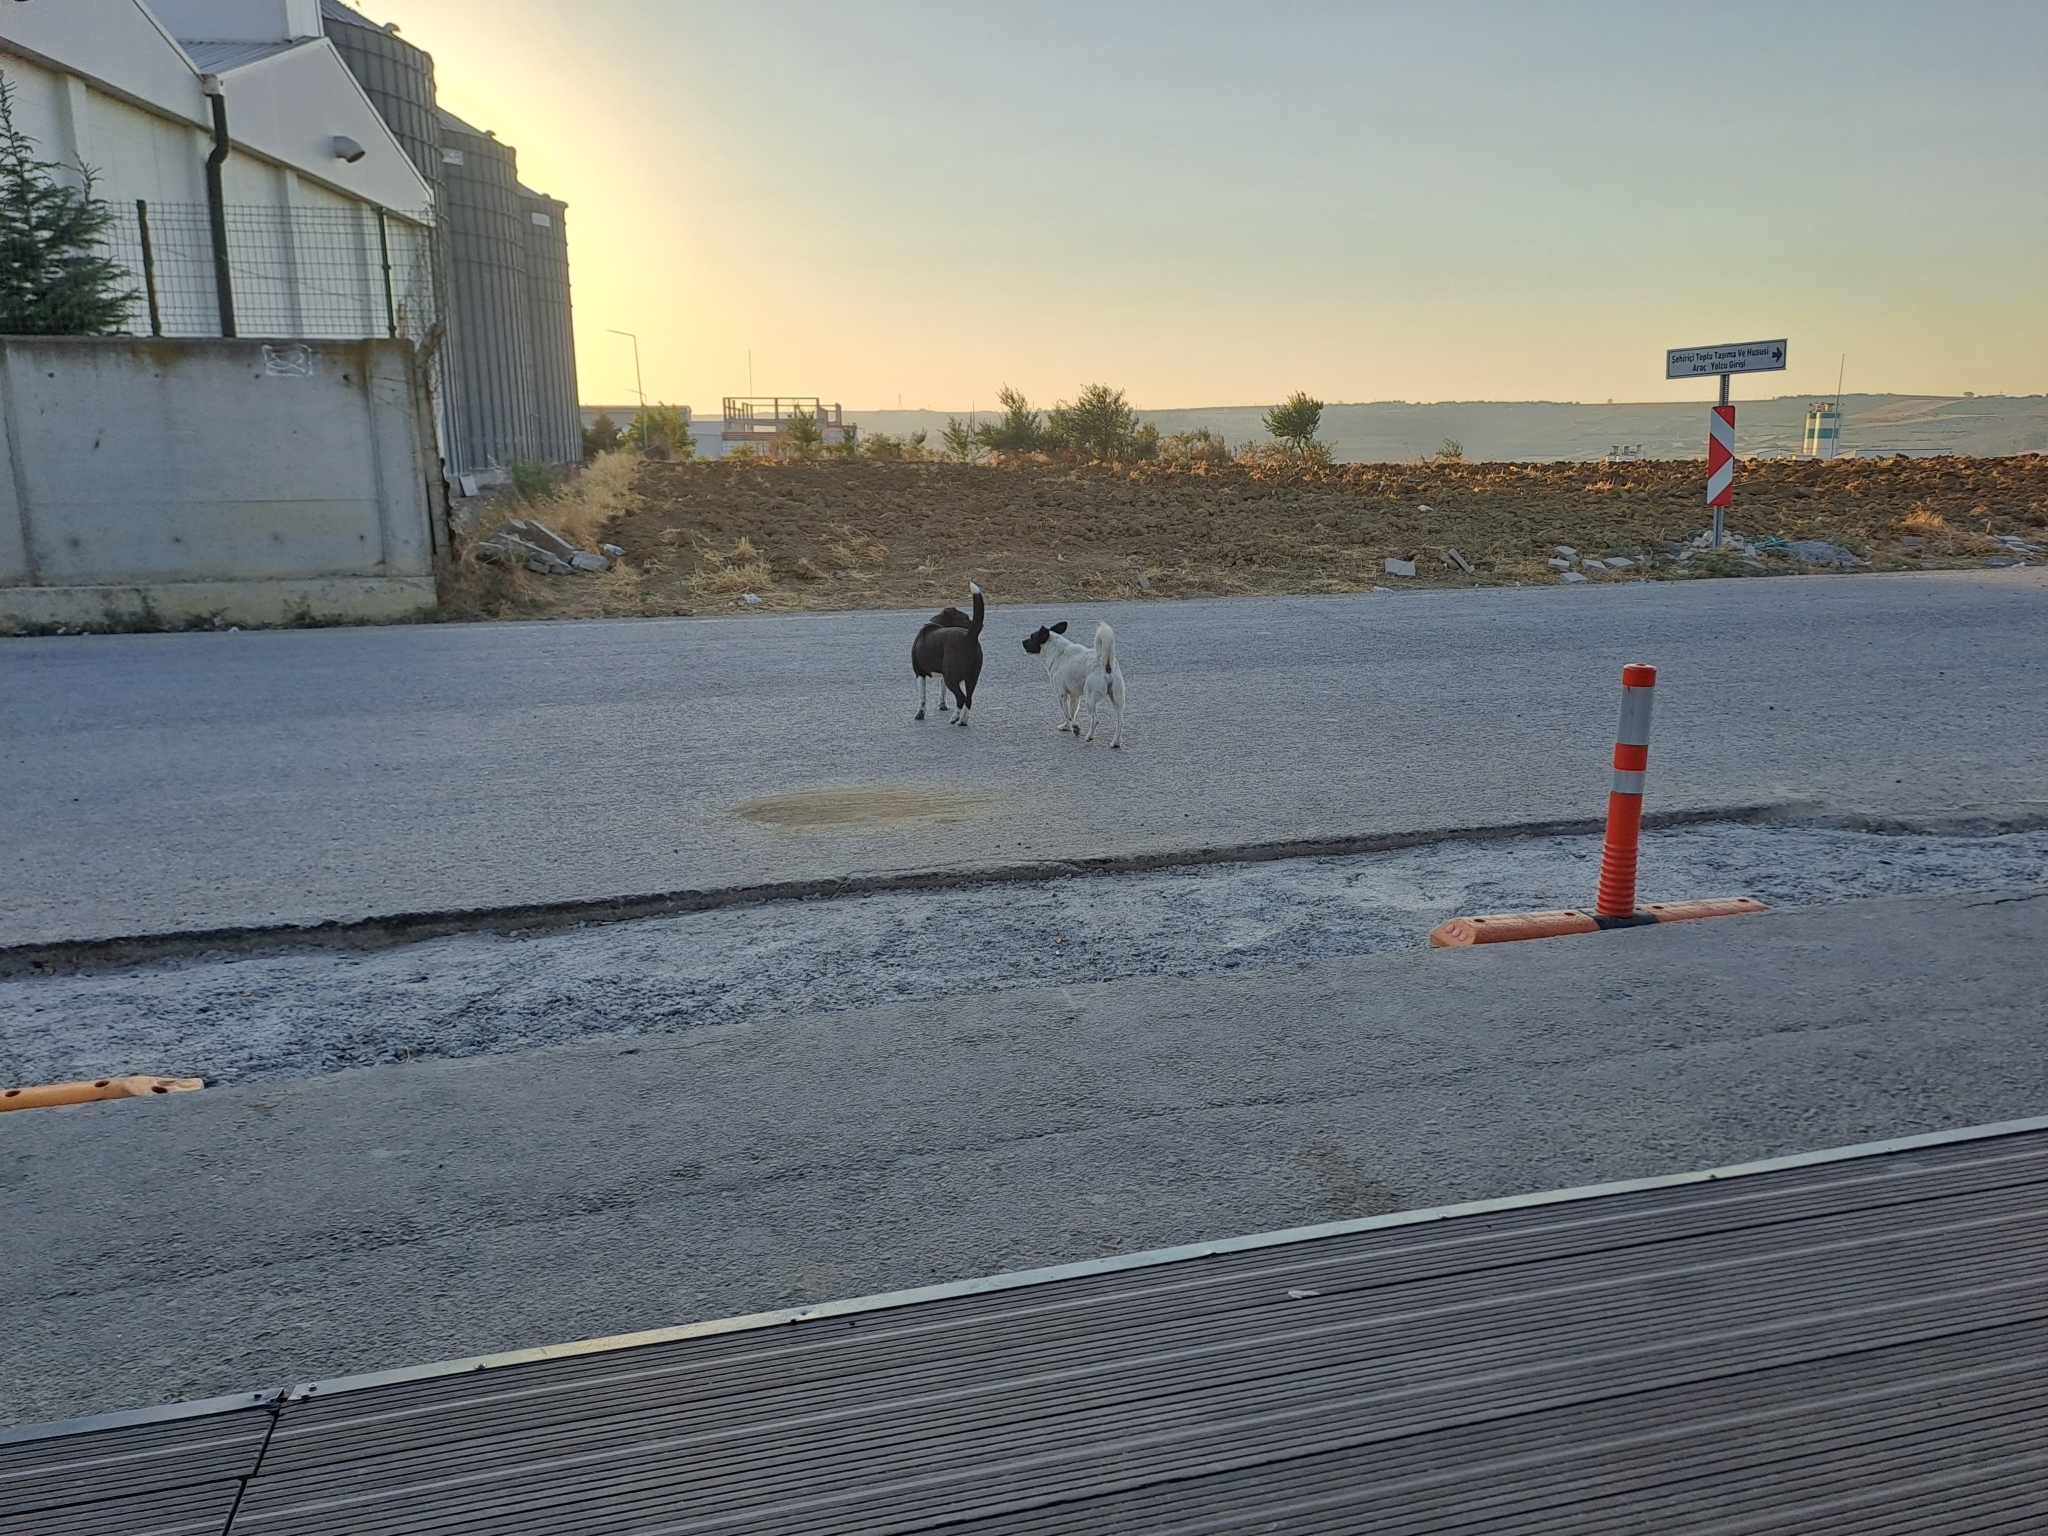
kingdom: Animalia
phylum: Chordata
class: Mammalia
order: Carnivora
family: Canidae
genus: Canis
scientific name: Canis lupus
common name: Gray wolf
